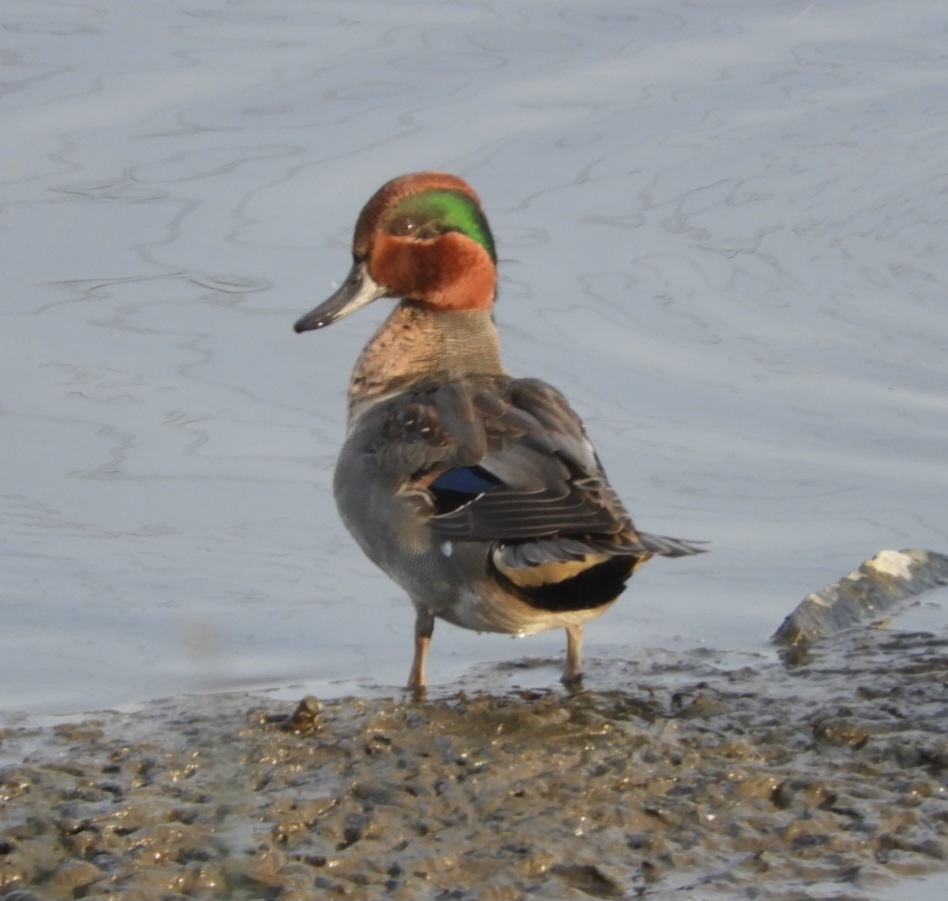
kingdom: Animalia
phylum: Chordata
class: Aves
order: Anseriformes
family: Anatidae
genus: Anas
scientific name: Anas crecca
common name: Eurasian teal
